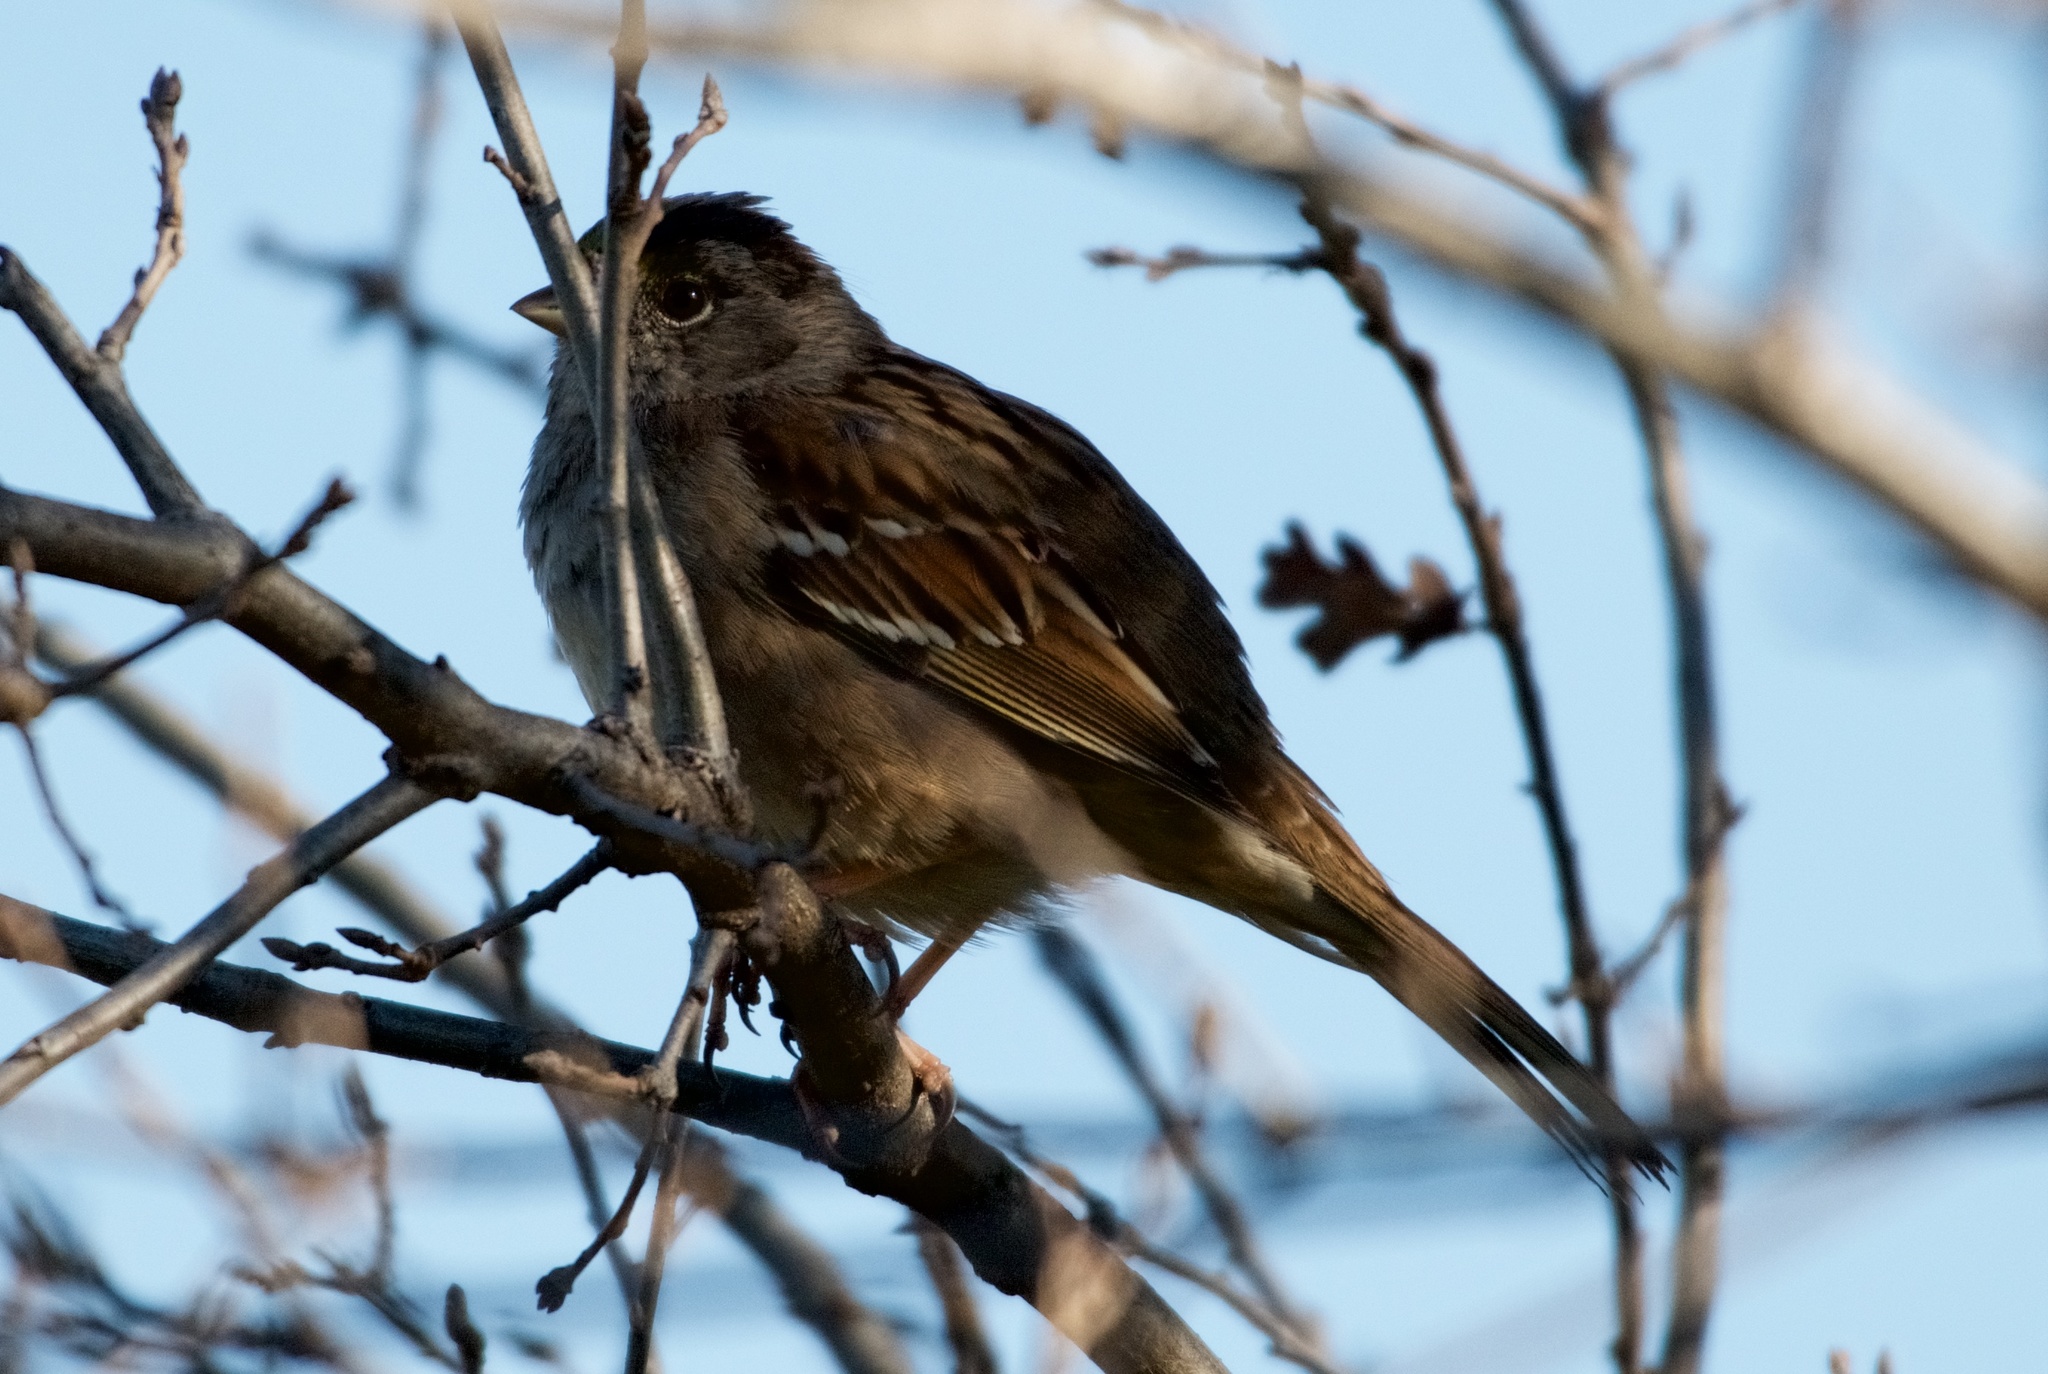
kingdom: Animalia
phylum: Chordata
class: Aves
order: Passeriformes
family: Passerellidae
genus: Zonotrichia
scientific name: Zonotrichia leucophrys
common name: White-crowned sparrow
